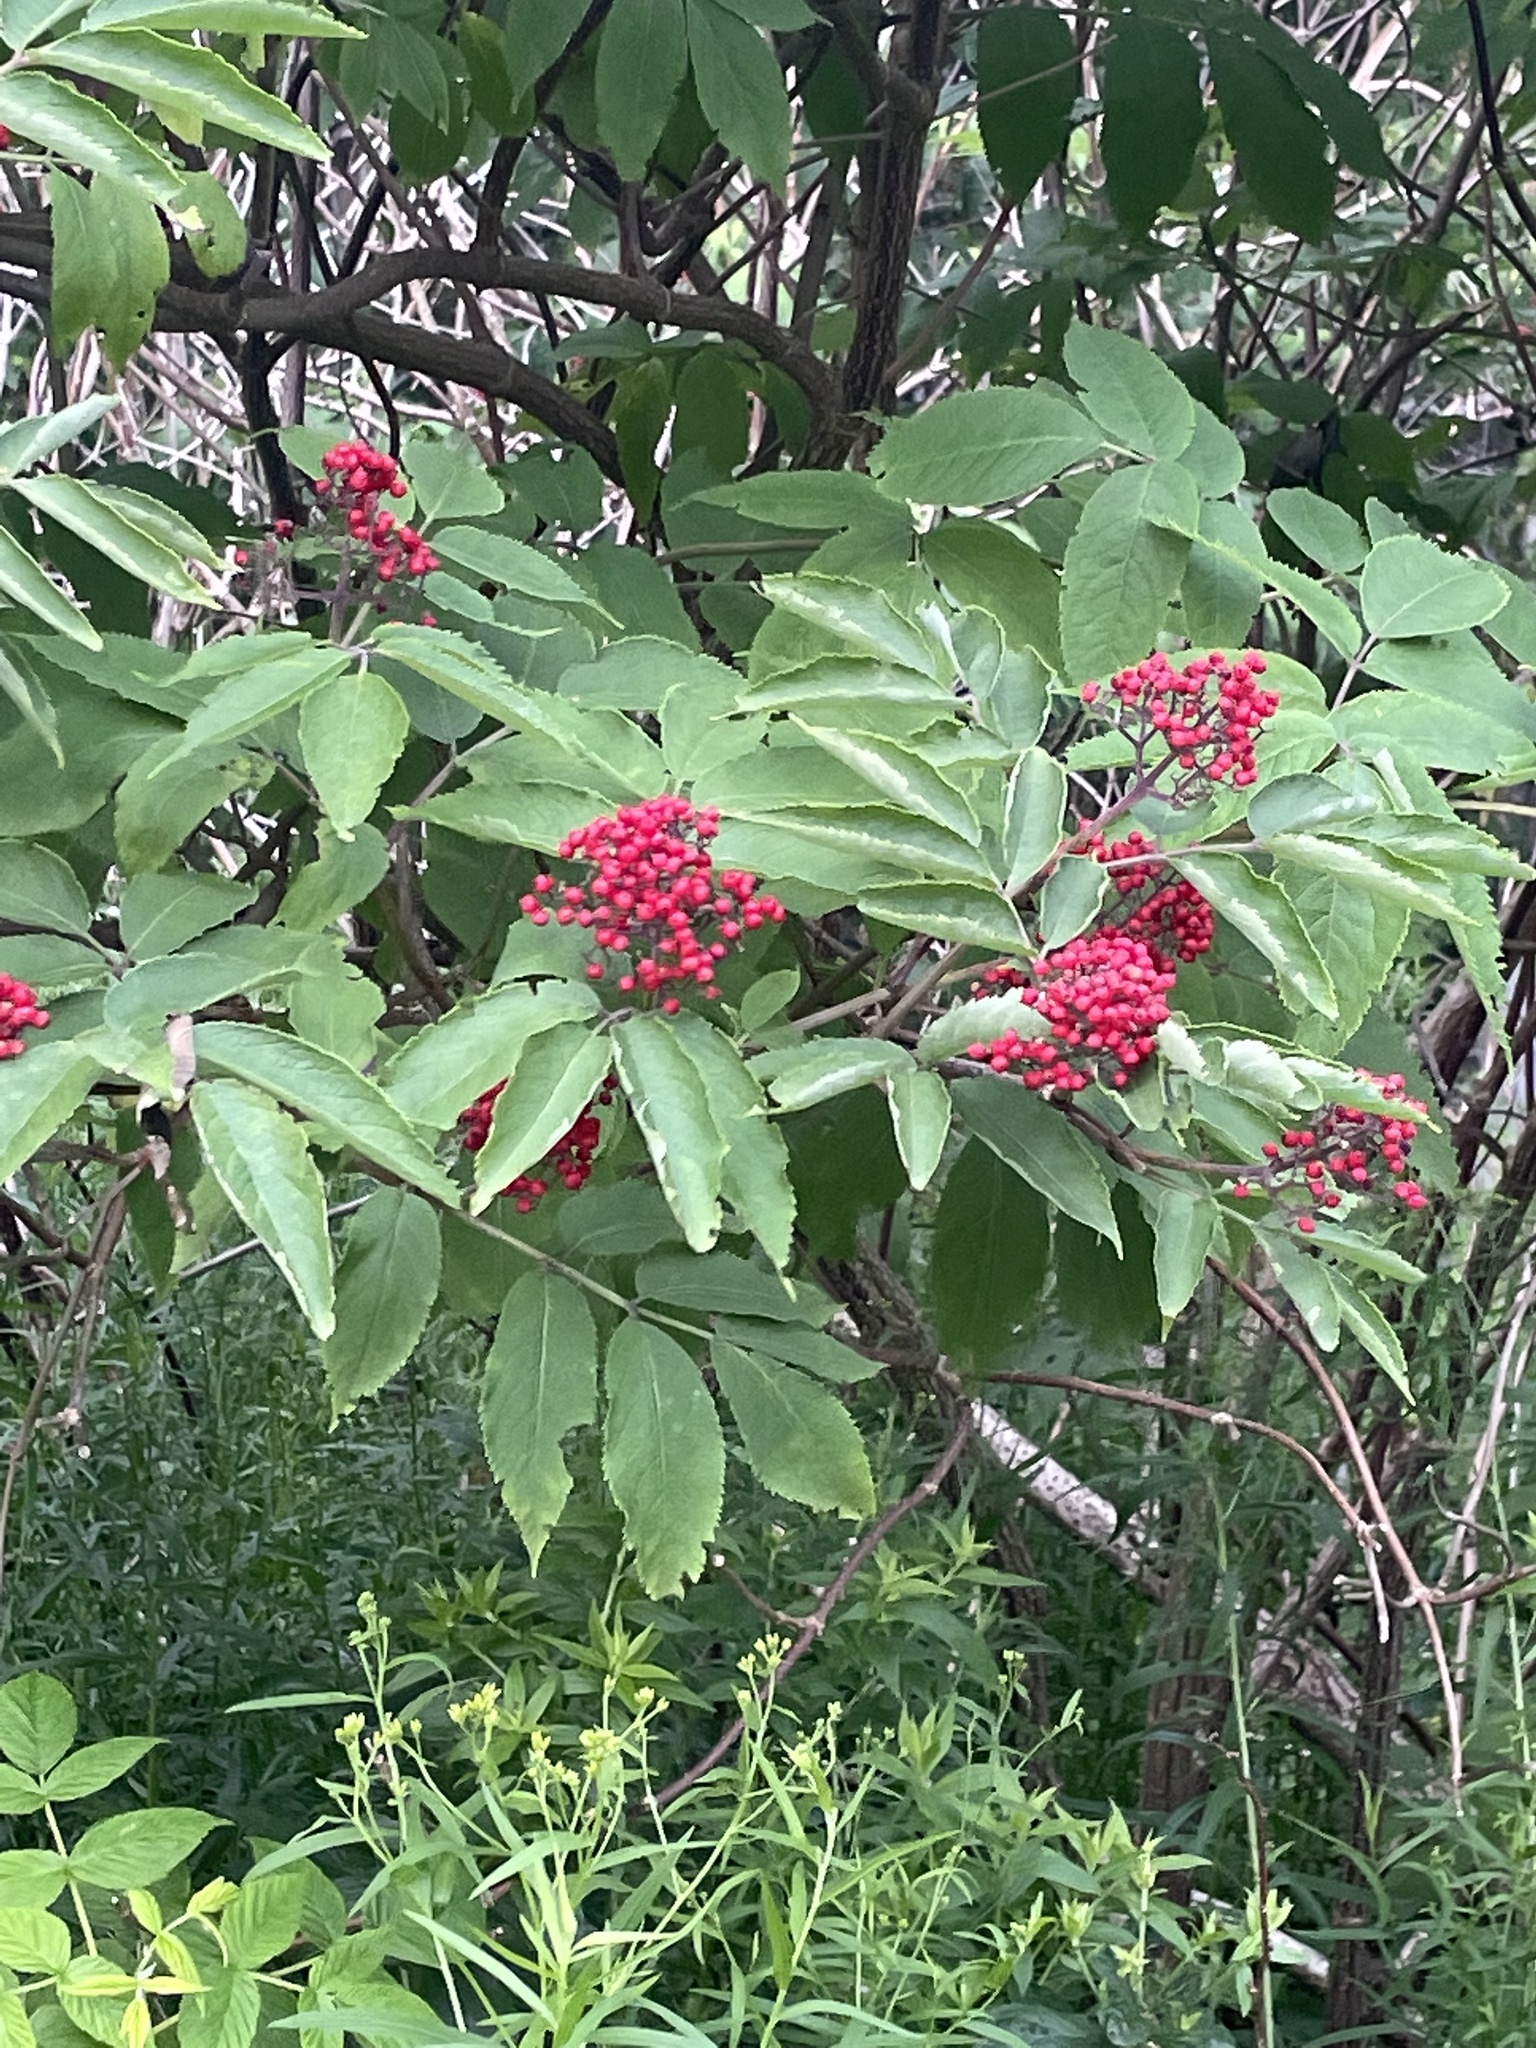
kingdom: Plantae
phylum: Tracheophyta
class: Magnoliopsida
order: Dipsacales
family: Viburnaceae
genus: Sambucus
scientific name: Sambucus racemosa
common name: Red-berried elder
